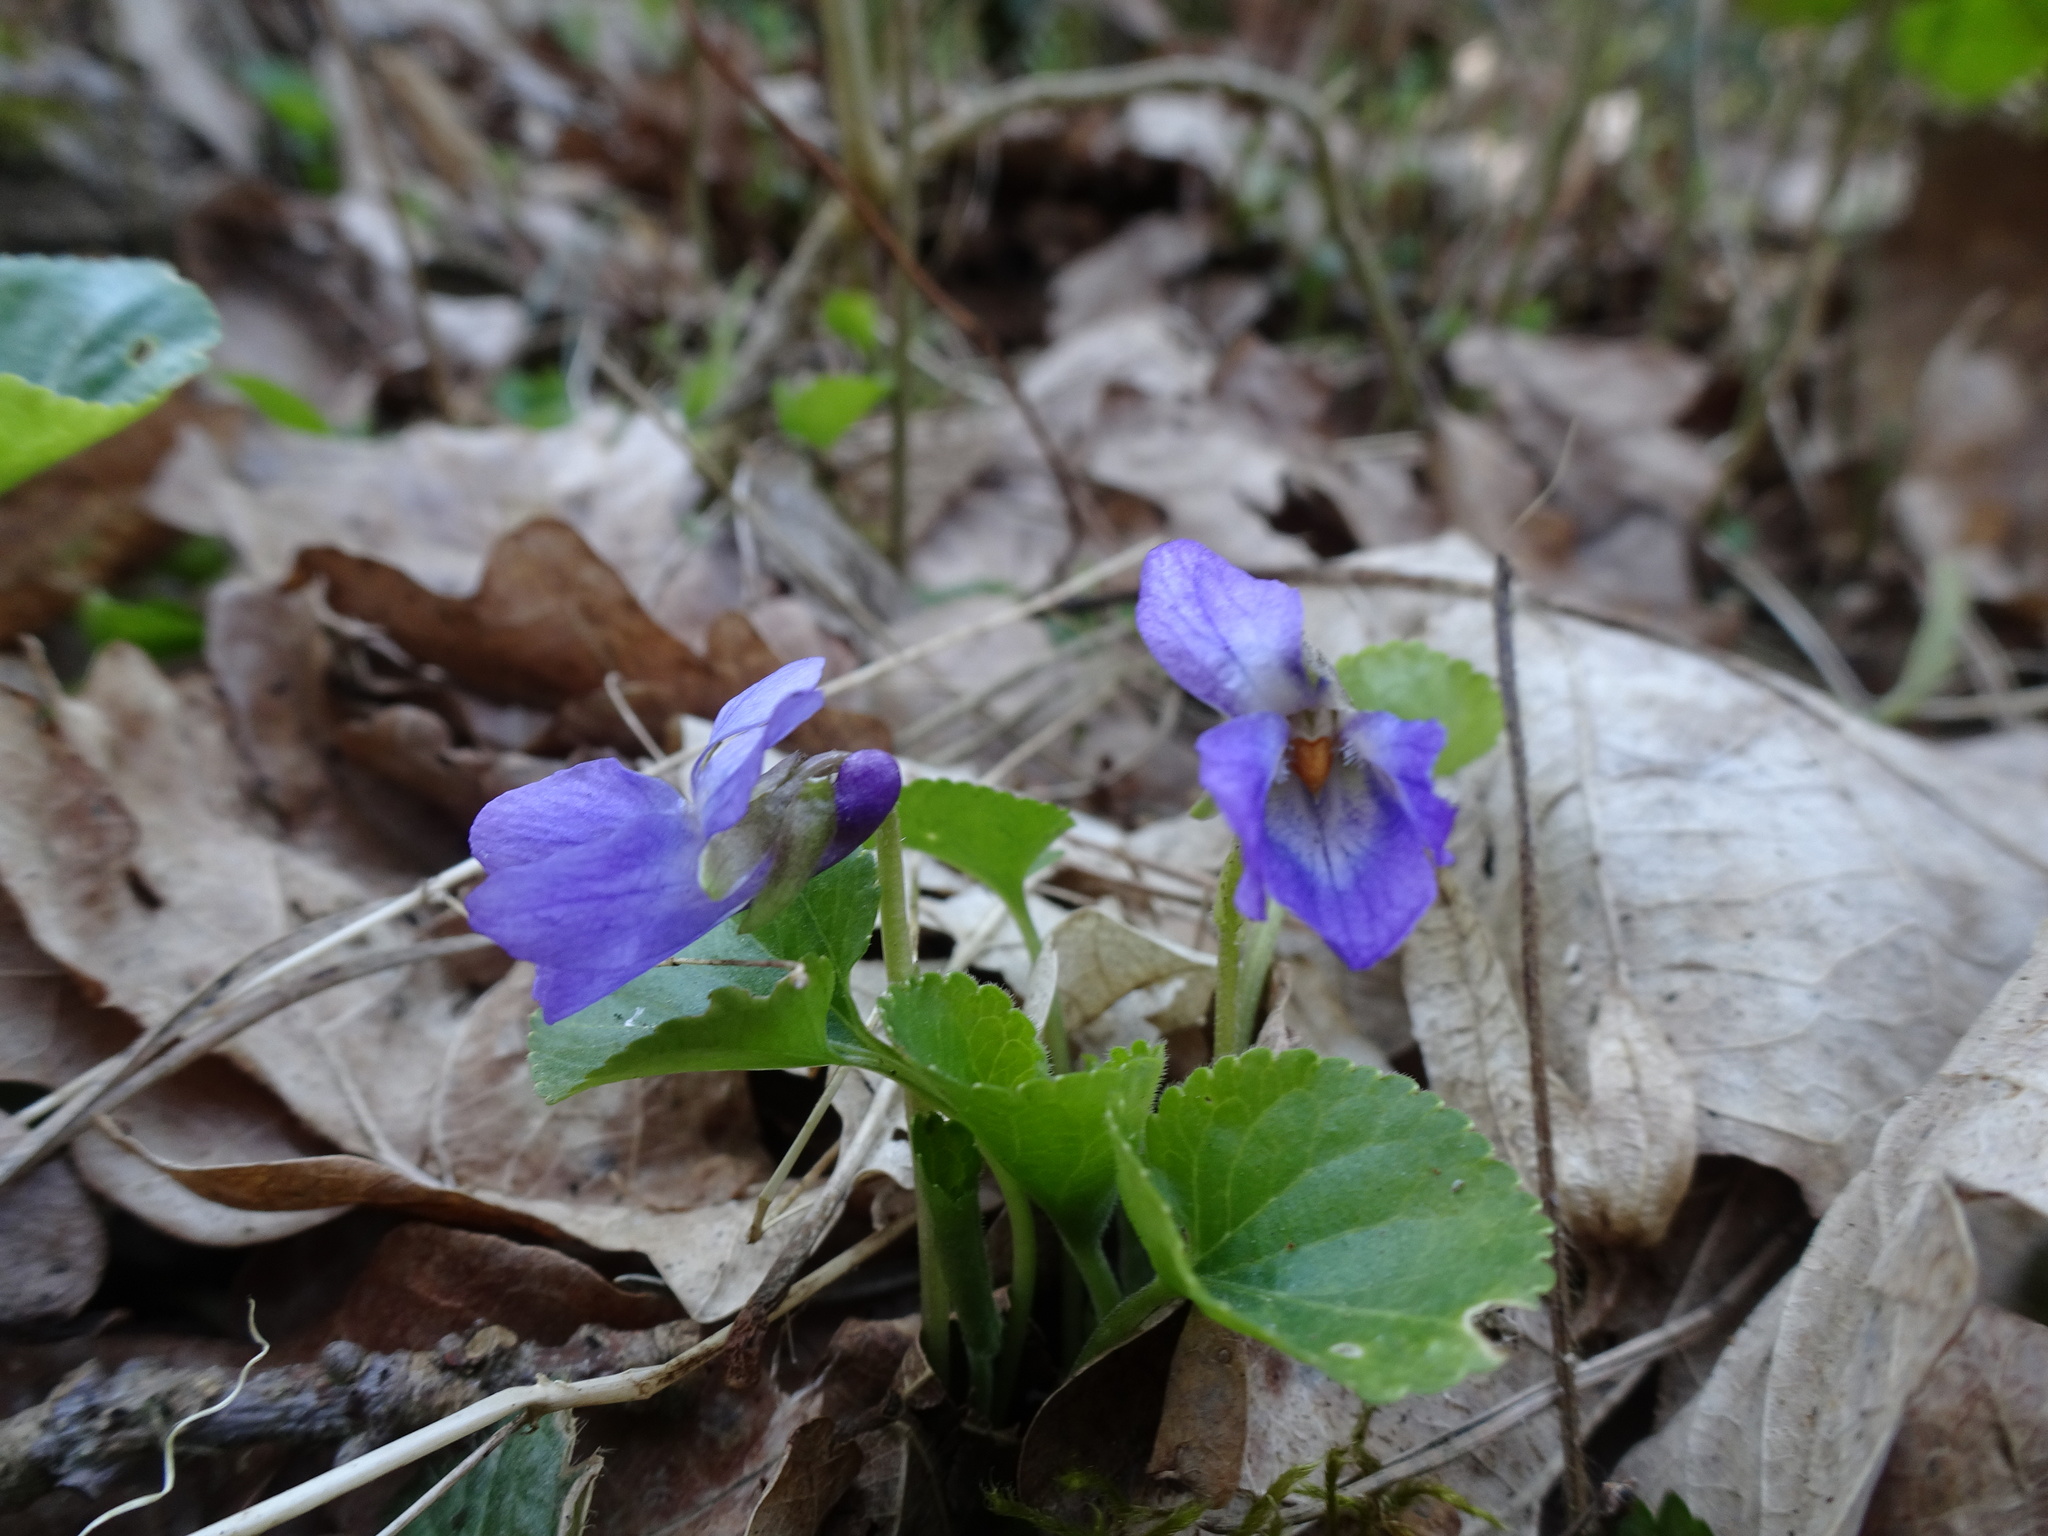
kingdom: Plantae
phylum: Tracheophyta
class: Magnoliopsida
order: Malpighiales
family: Violaceae
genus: Viola
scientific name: Viola odorata
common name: Sweet violet
